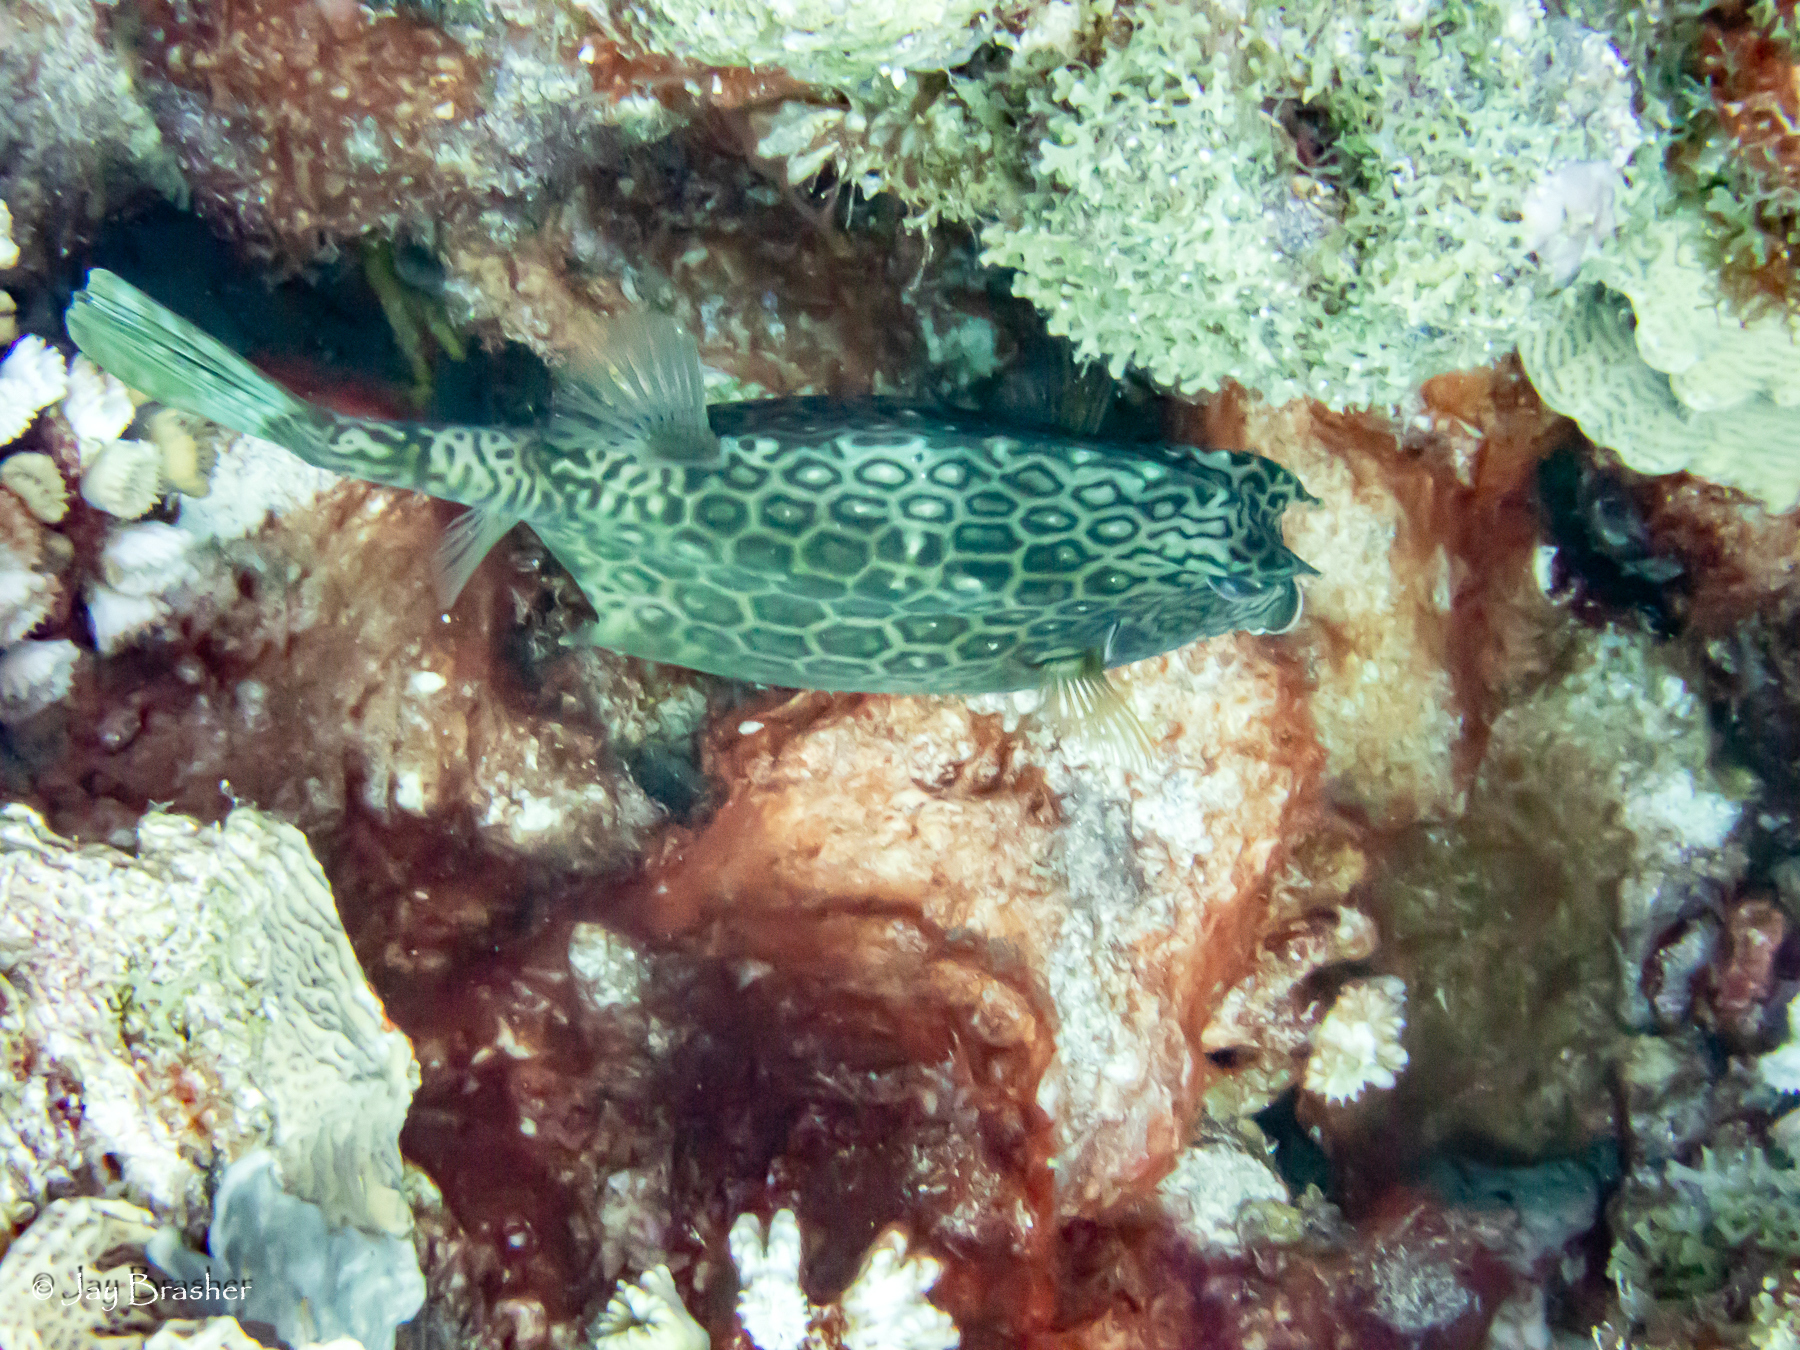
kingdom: Animalia
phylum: Chordata
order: Tetraodontiformes
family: Ostraciidae
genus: Acanthostracion
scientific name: Acanthostracion polygonius
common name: Honeycomb cowfish
